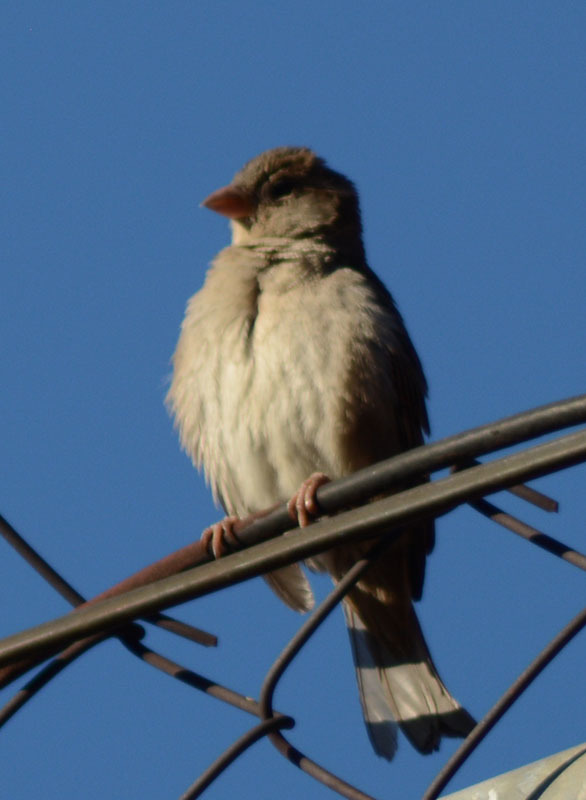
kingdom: Animalia
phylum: Chordata
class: Aves
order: Passeriformes
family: Passeridae
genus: Passer
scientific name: Passer domesticus
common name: House sparrow
